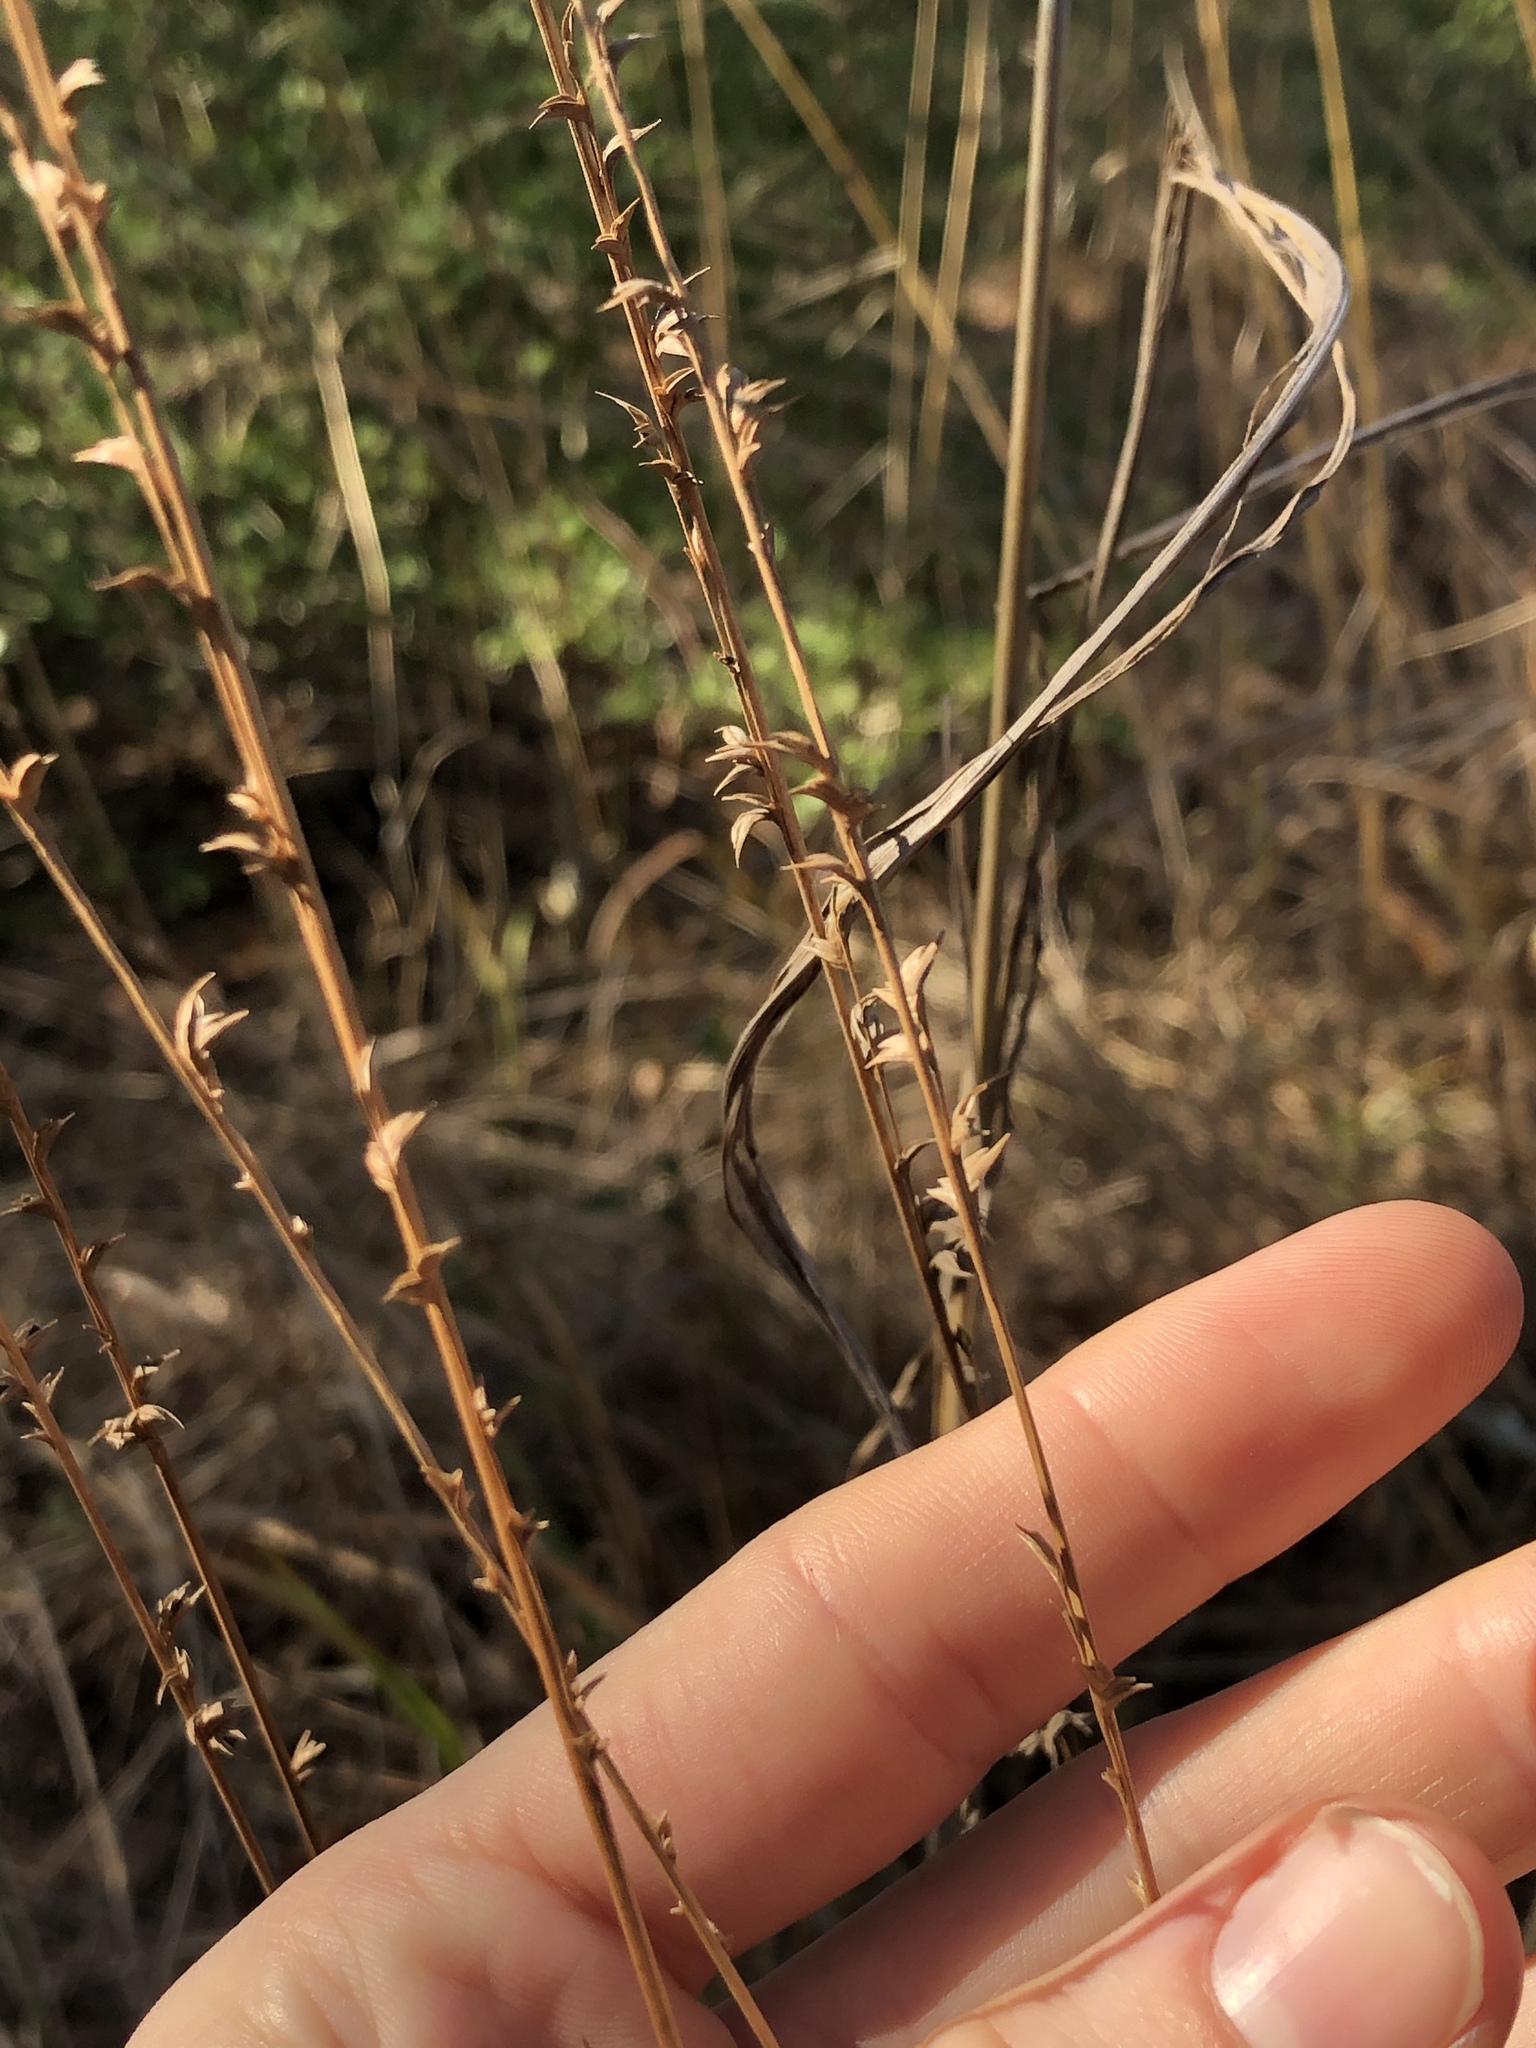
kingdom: Plantae
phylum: Tracheophyta
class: Liliopsida
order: Poales
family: Poaceae
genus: Chasmanthium
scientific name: Chasmanthium laxum
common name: Slender chasmanthium
